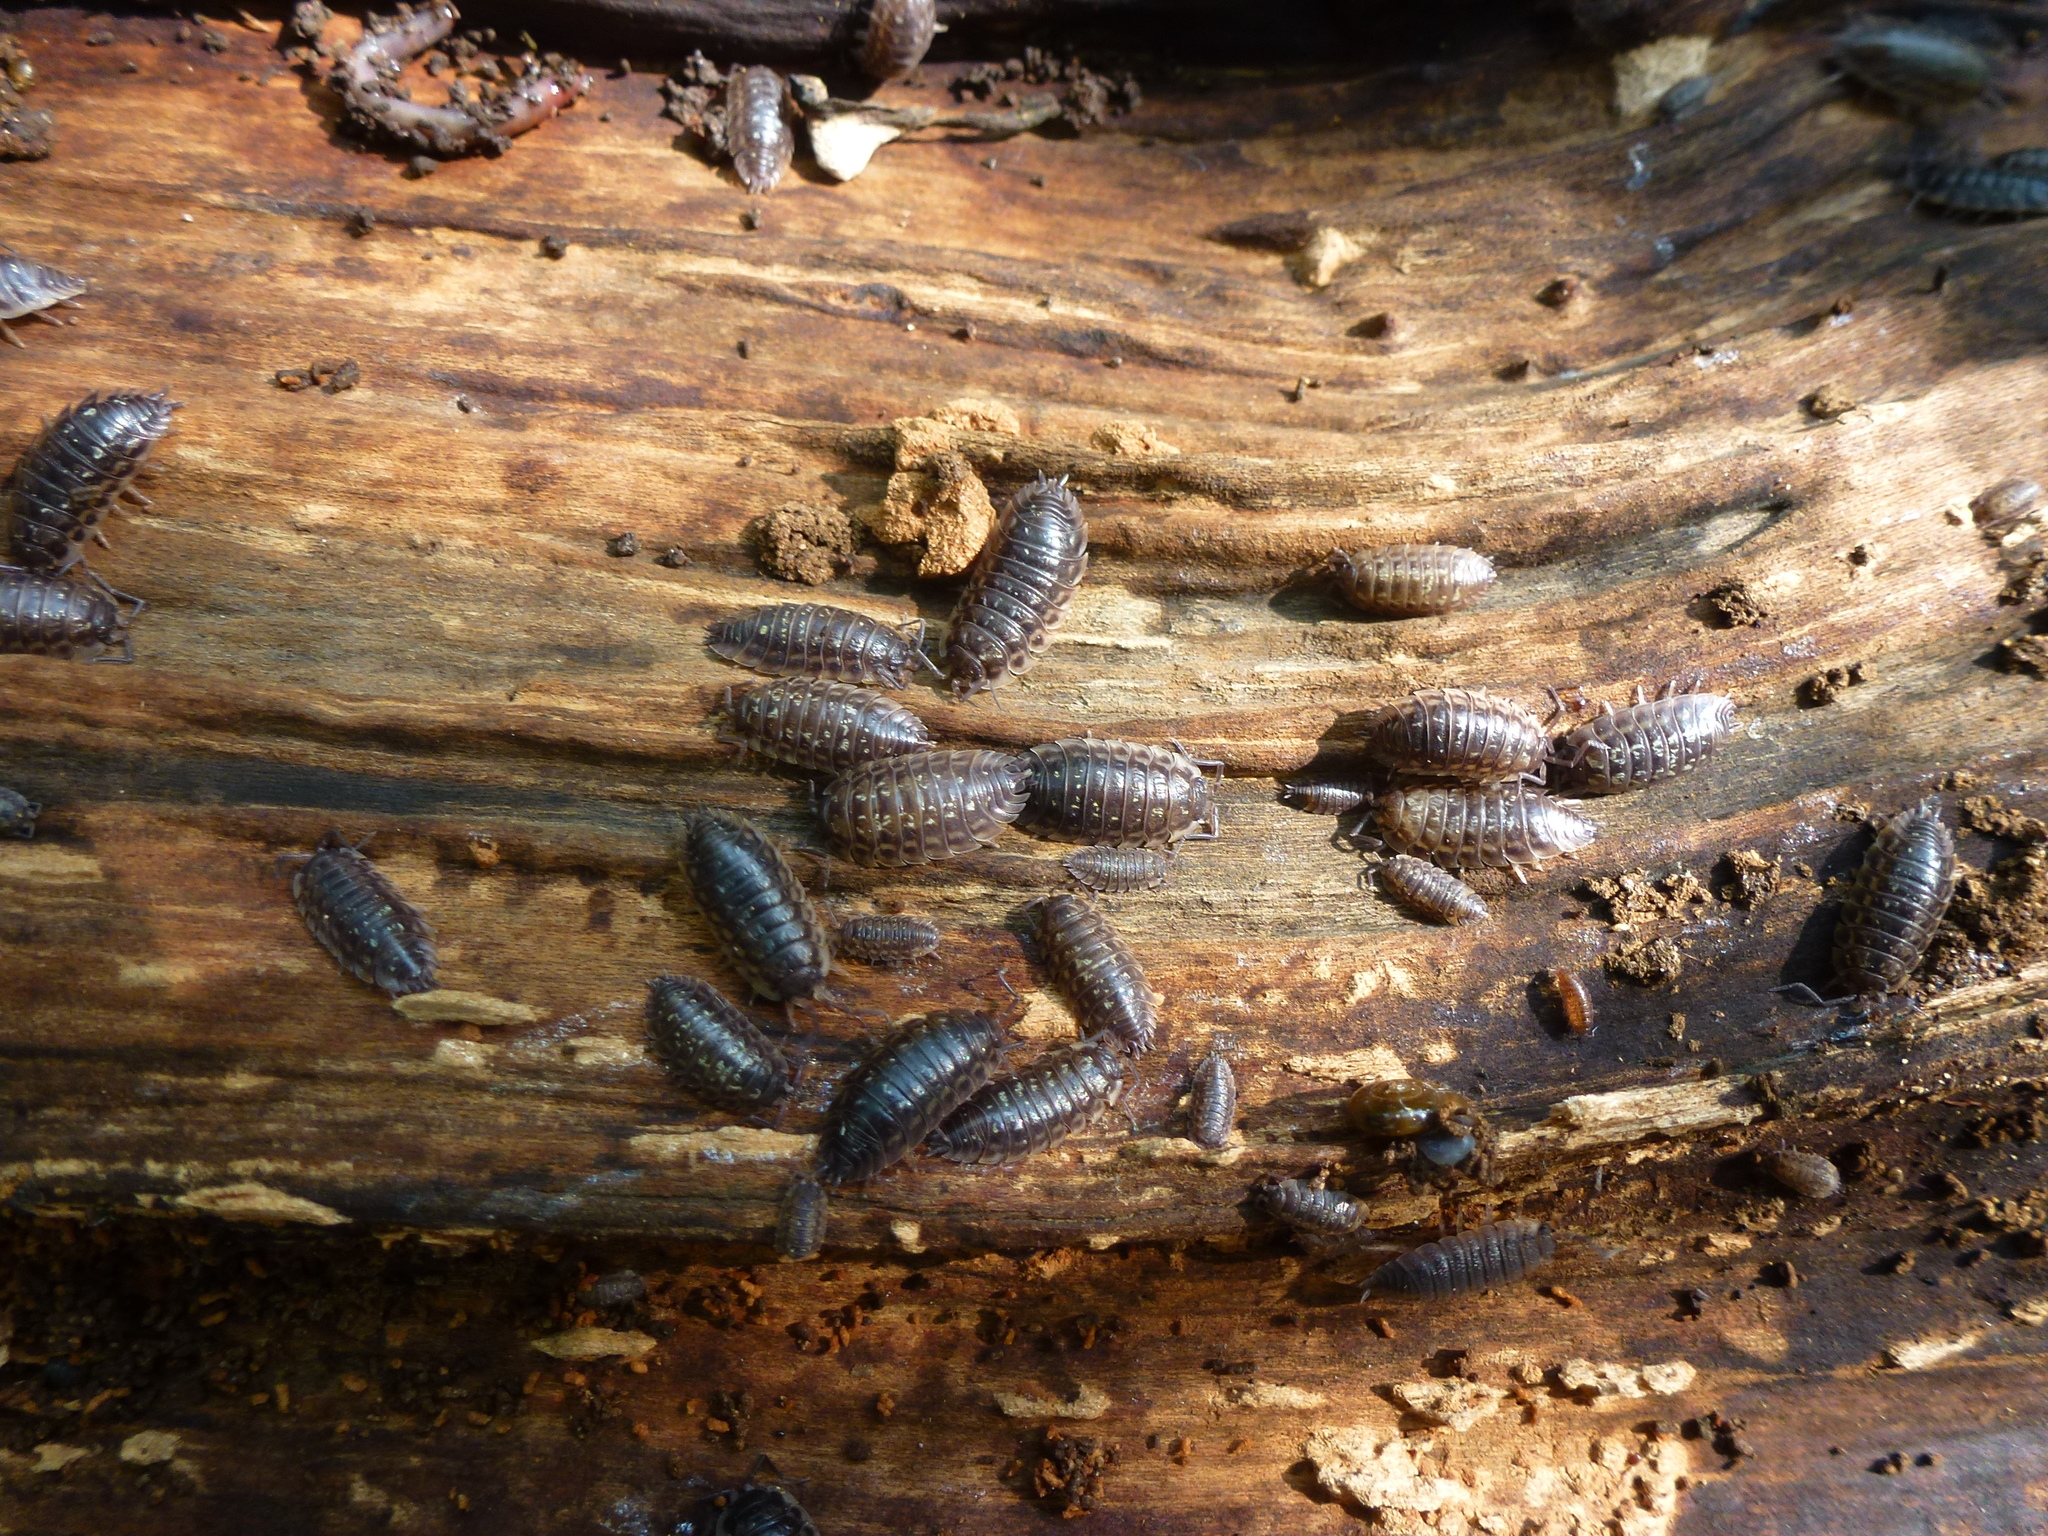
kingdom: Animalia
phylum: Arthropoda
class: Malacostraca
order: Isopoda
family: Oniscidae
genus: Oniscus
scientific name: Oniscus asellus
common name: Common shiny woodlouse
